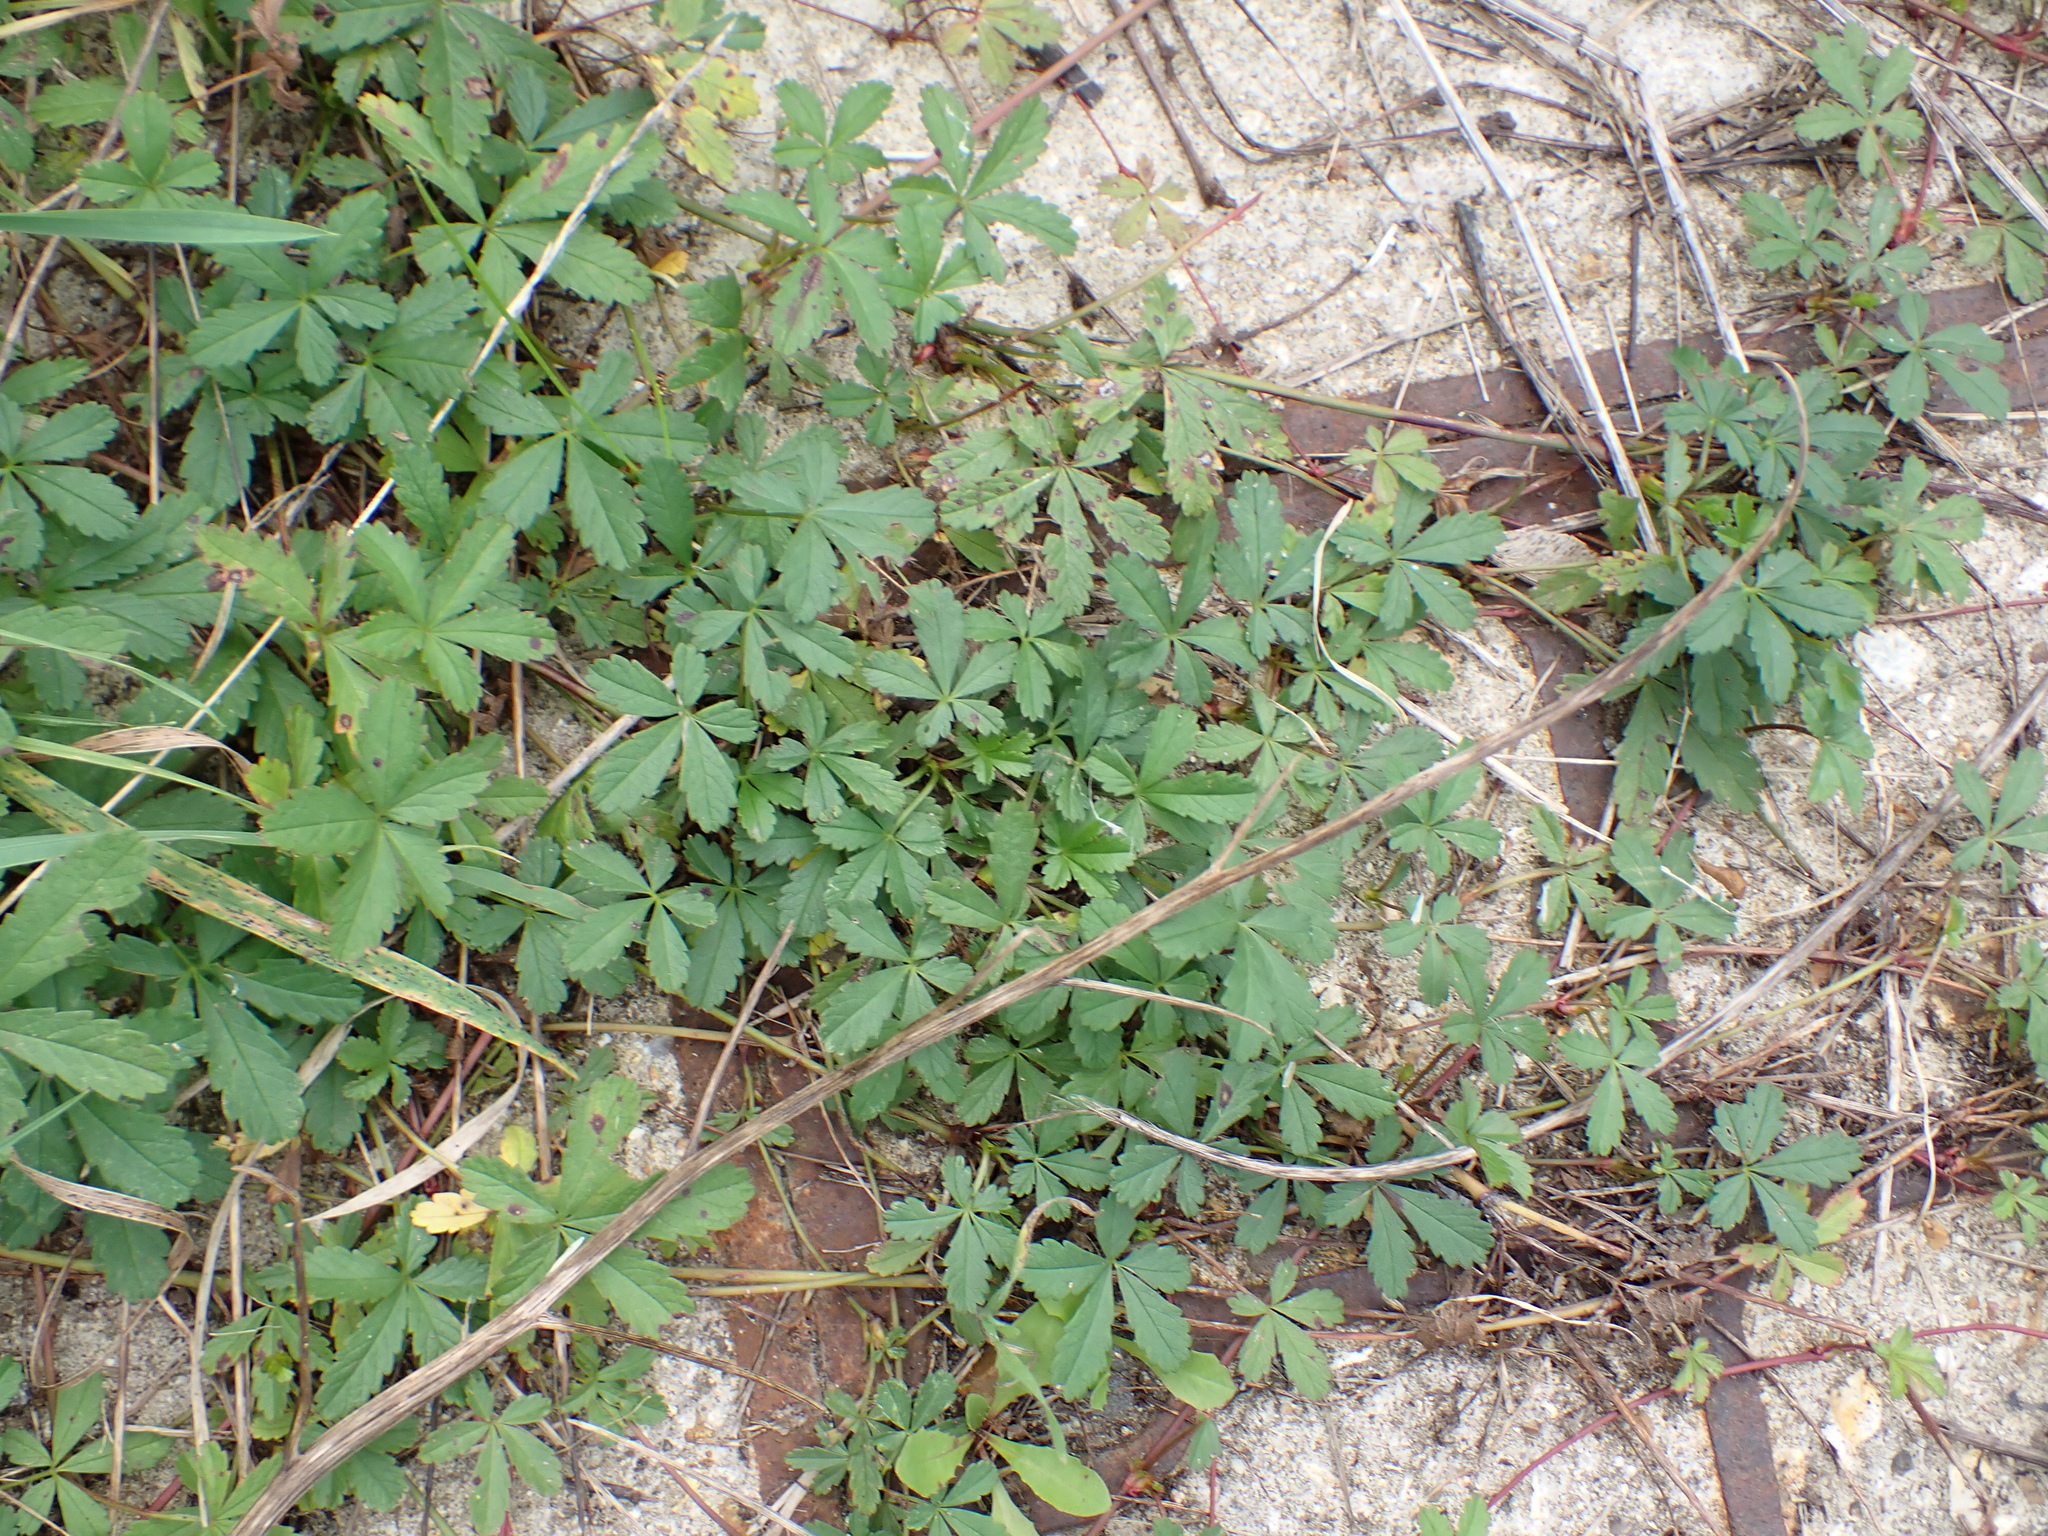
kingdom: Plantae
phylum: Tracheophyta
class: Magnoliopsida
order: Rosales
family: Rosaceae
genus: Potentilla
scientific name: Potentilla reptans
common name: Creeping cinquefoil
